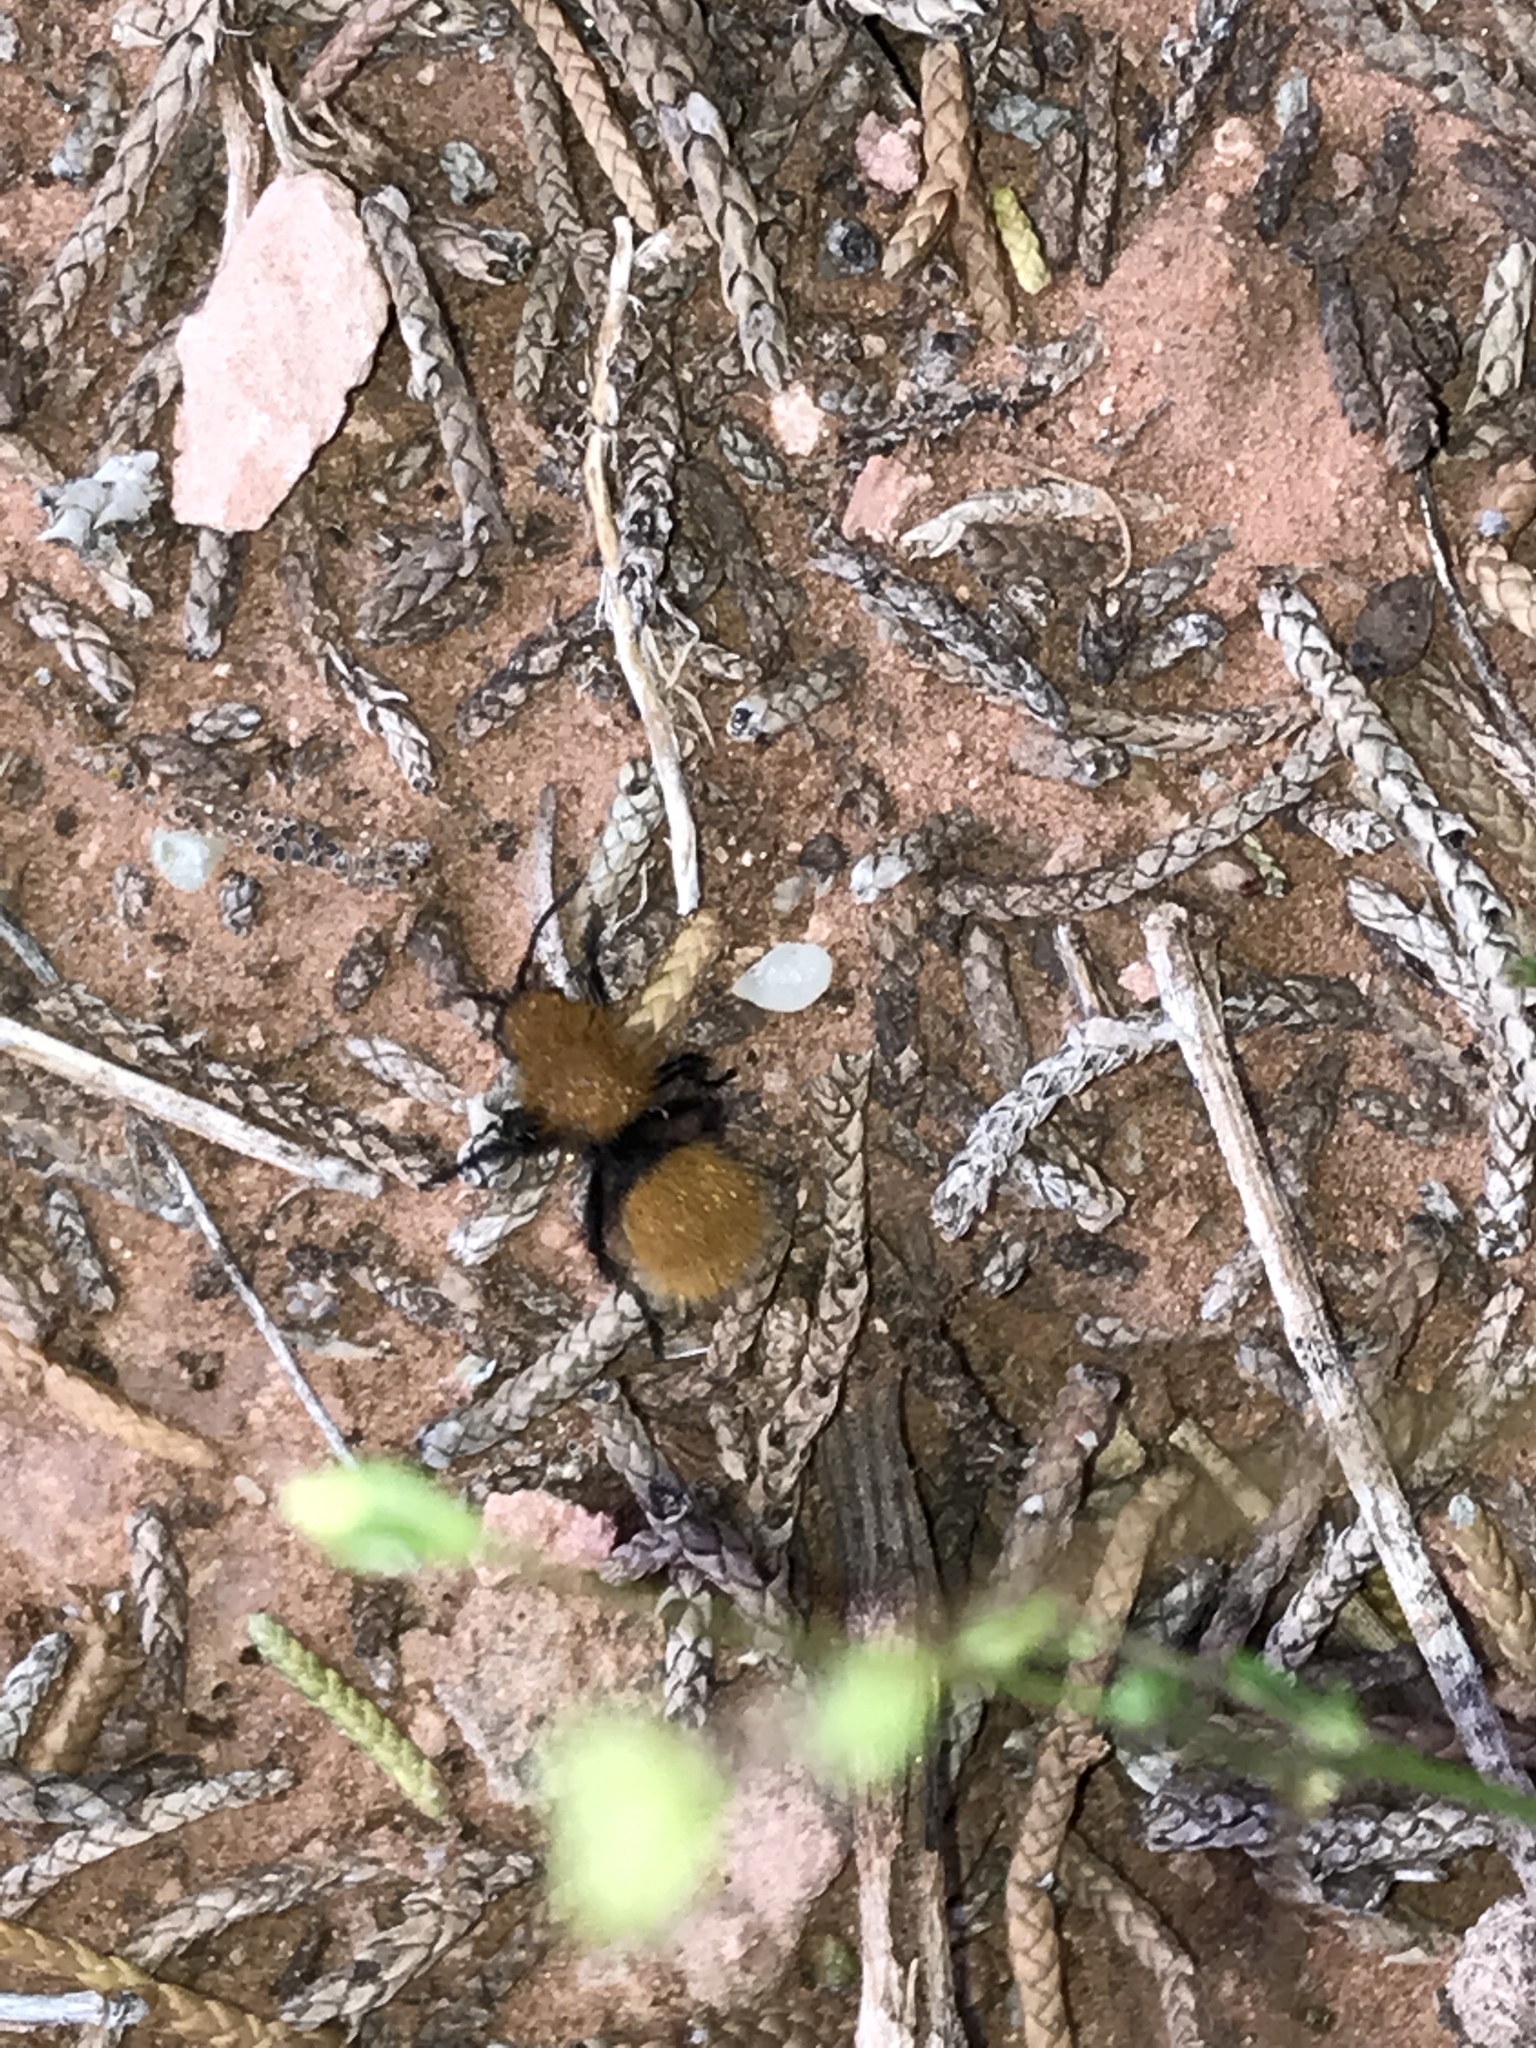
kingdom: Animalia
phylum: Arthropoda
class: Insecta
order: Hymenoptera
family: Mutillidae
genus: Dasymutilla
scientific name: Dasymutilla vestita
